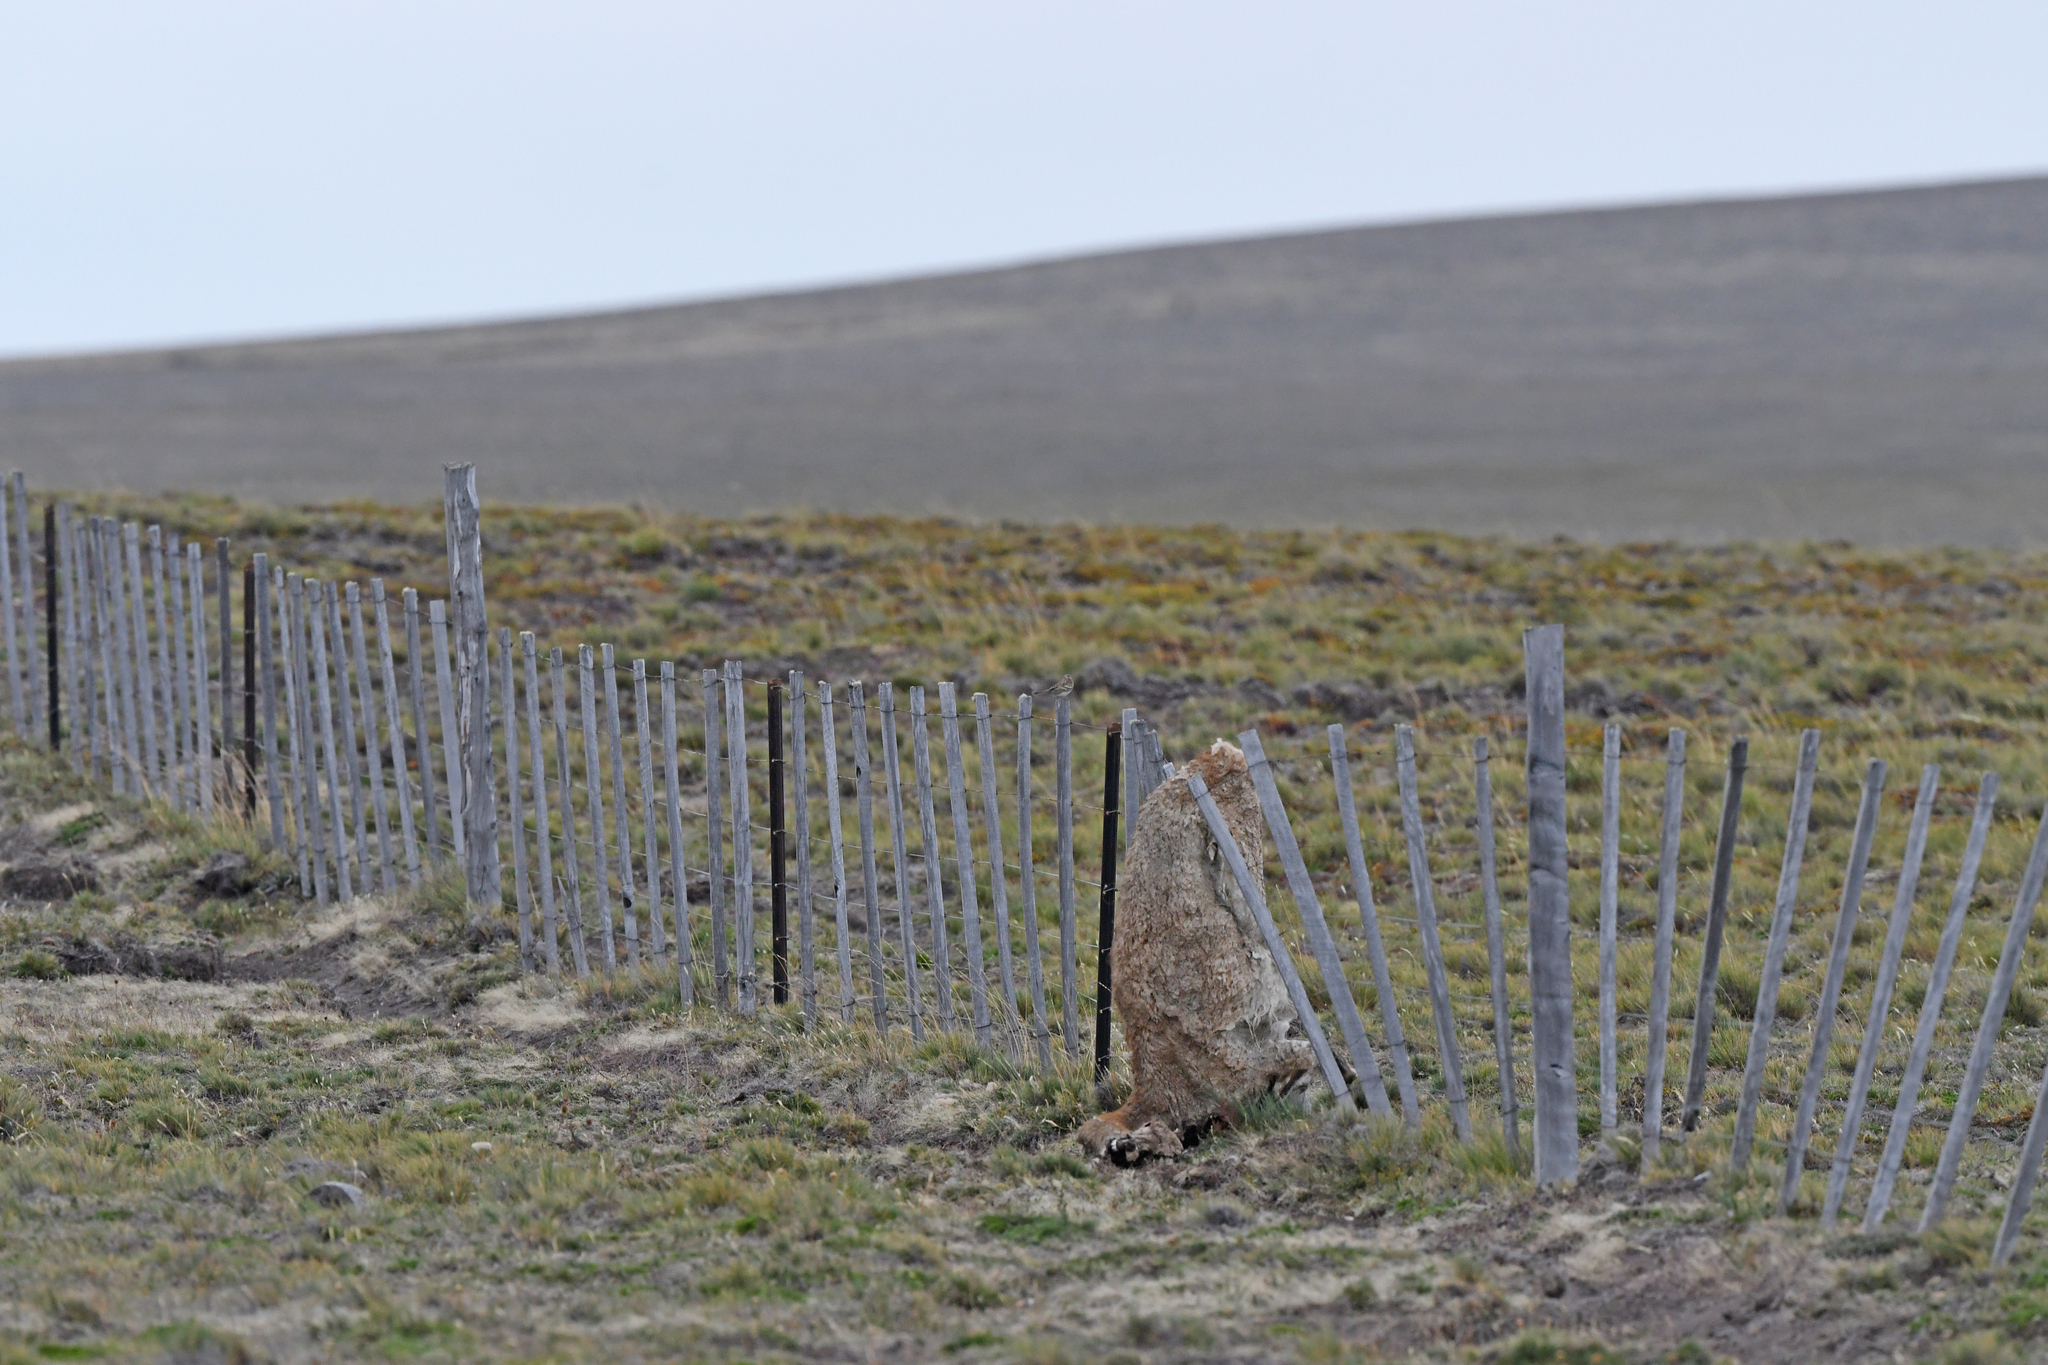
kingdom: Animalia
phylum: Chordata
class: Mammalia
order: Artiodactyla
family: Camelidae
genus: Lama
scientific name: Lama glama
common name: Llama
